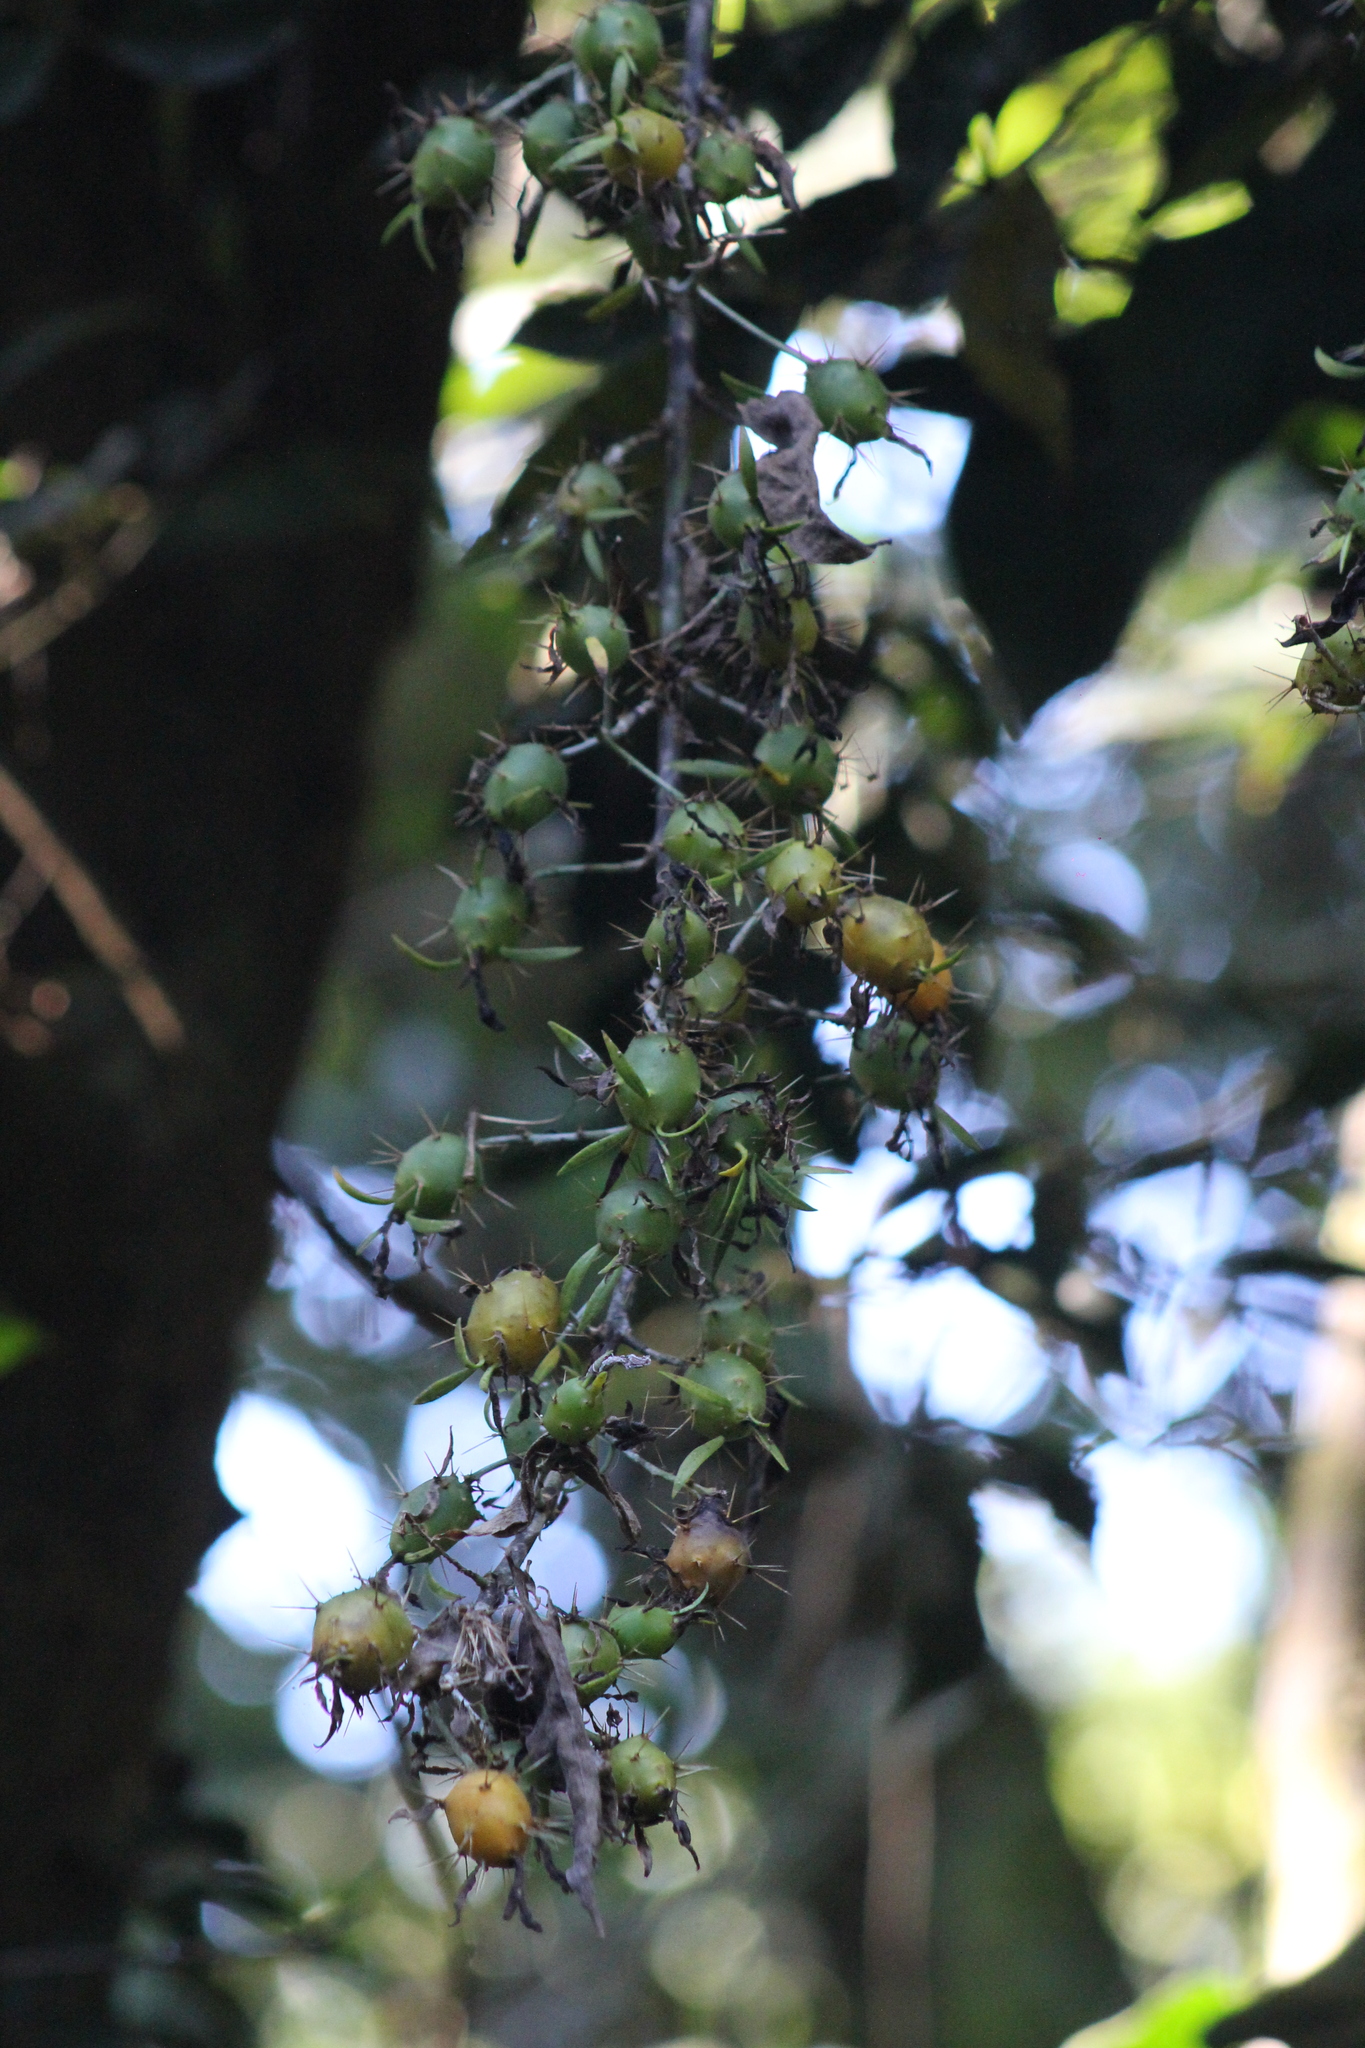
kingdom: Plantae
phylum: Tracheophyta
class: Magnoliopsida
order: Caryophyllales
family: Cactaceae
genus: Pereskia
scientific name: Pereskia aculeata
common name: Barbados gooseberry
